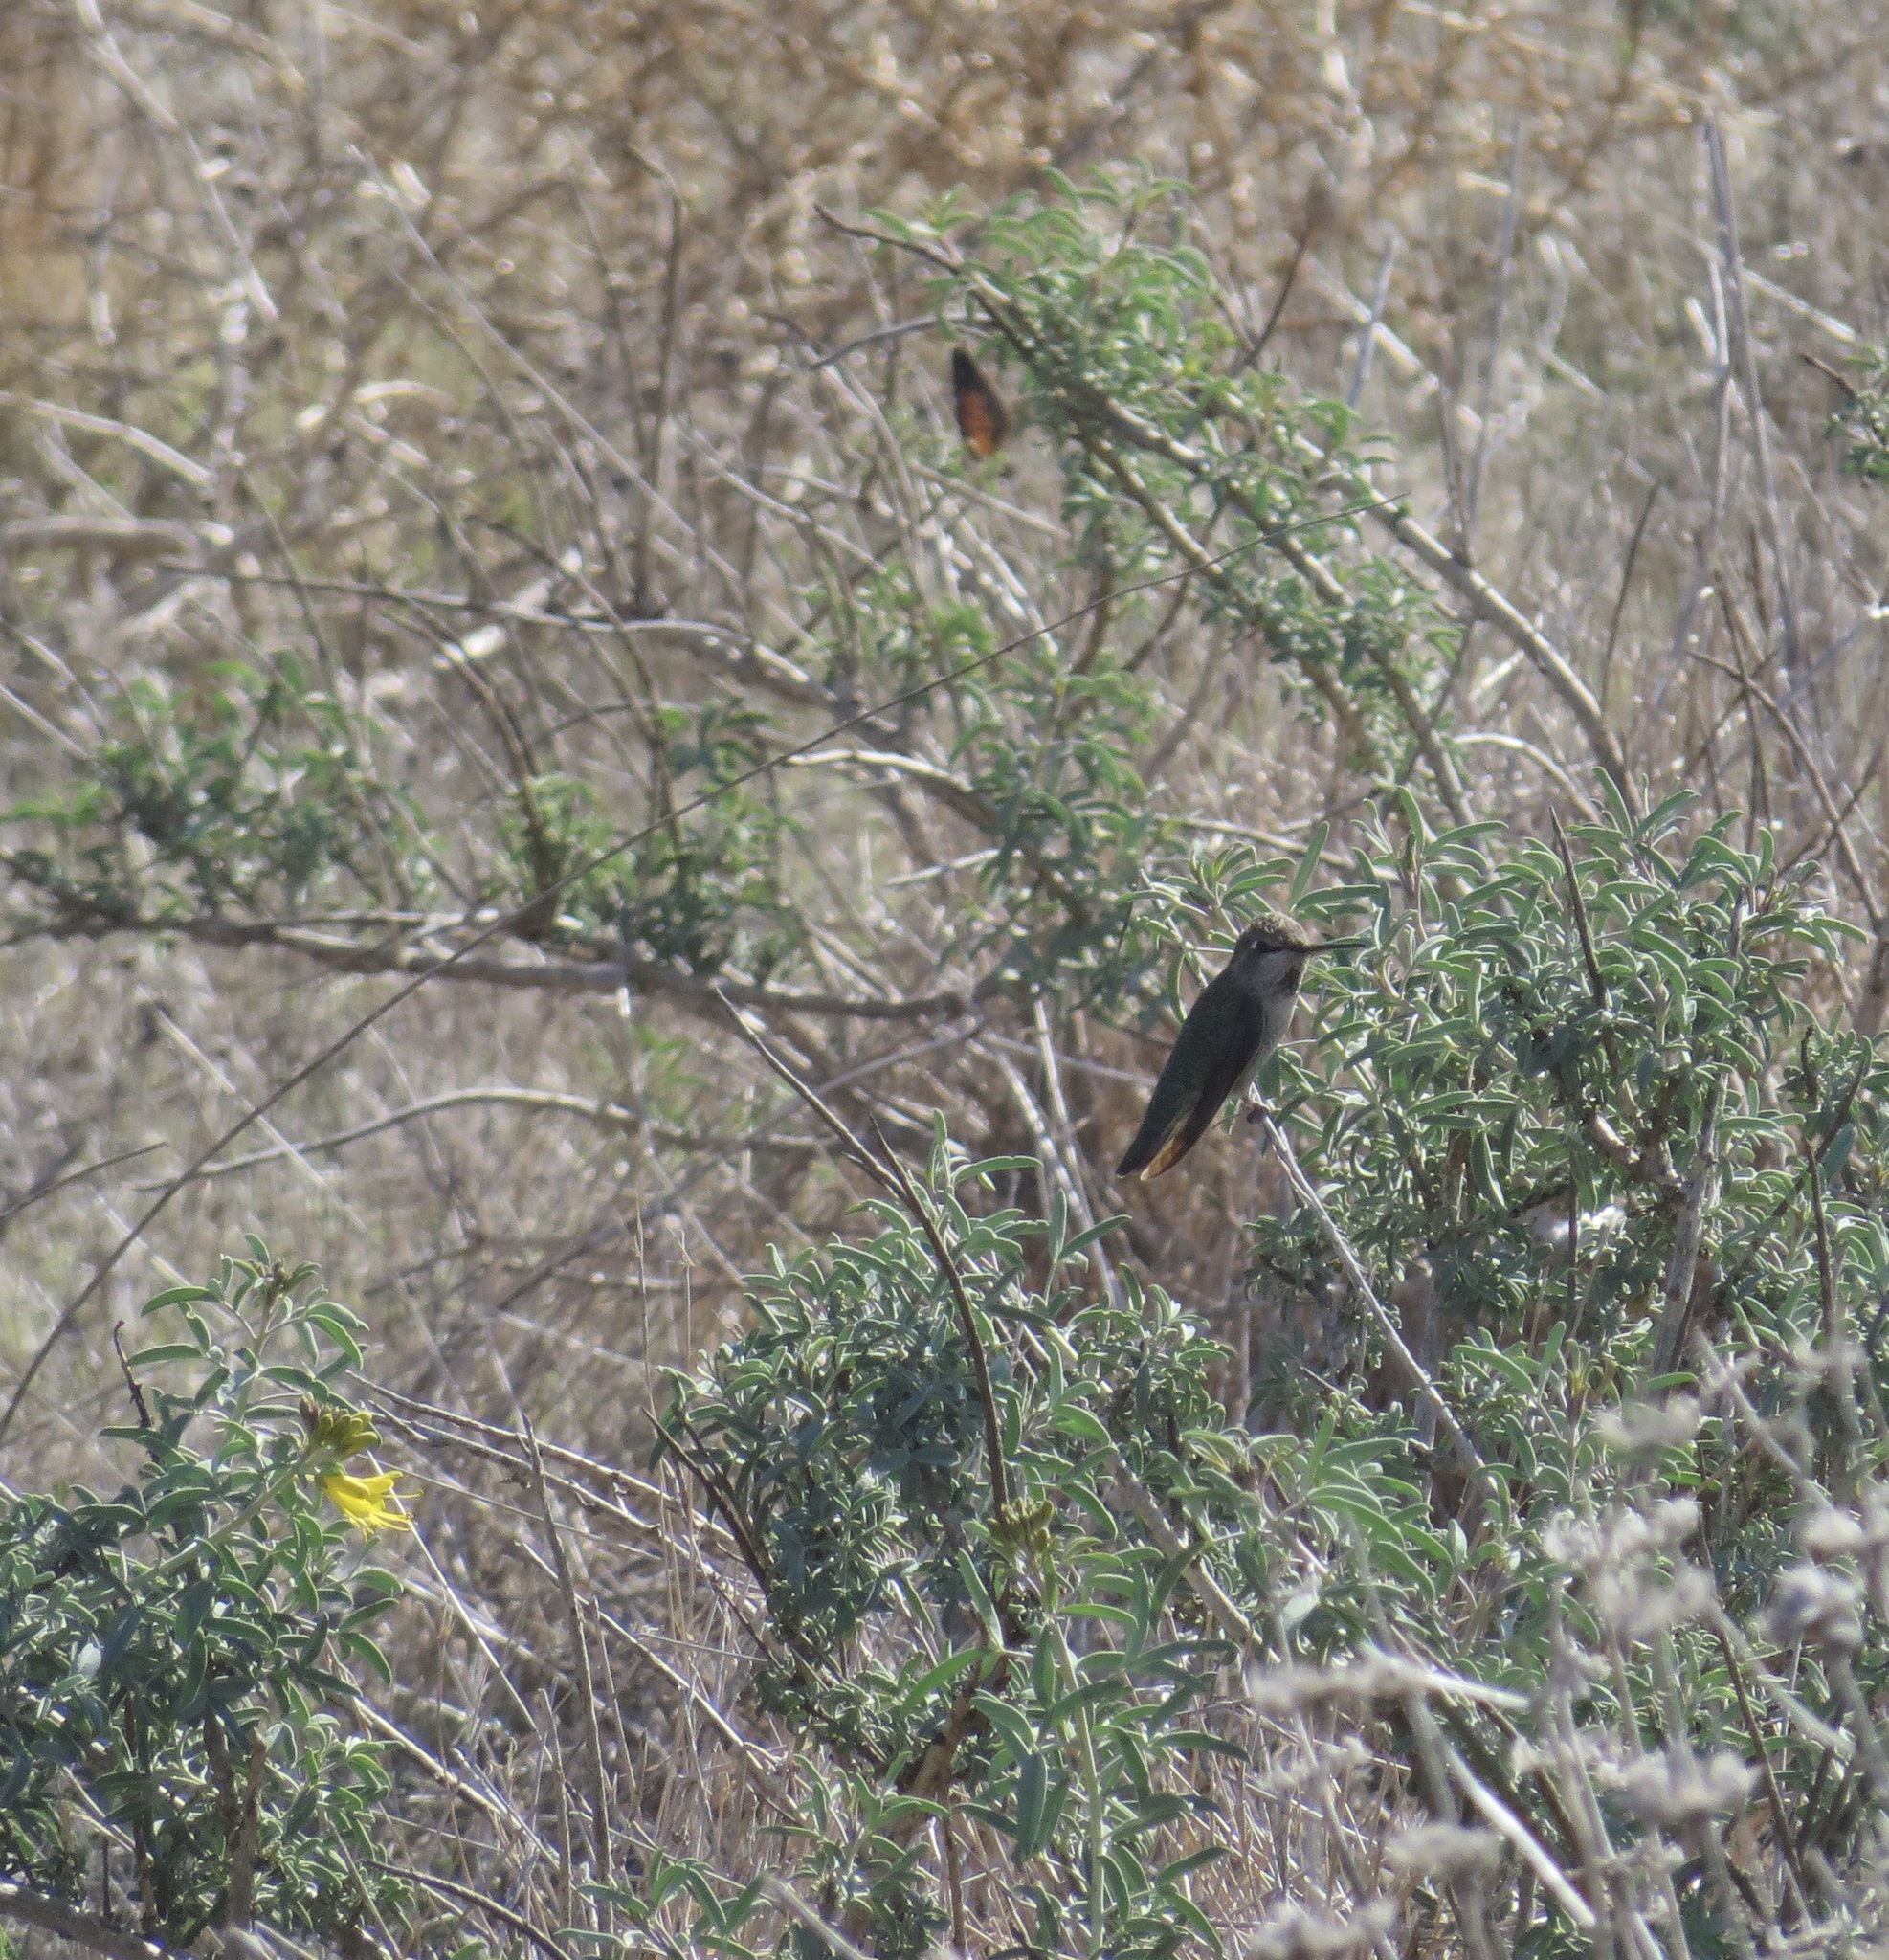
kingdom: Animalia
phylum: Chordata
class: Aves
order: Apodiformes
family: Trochilidae
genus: Calypte
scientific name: Calypte anna
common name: Anna's hummingbird
